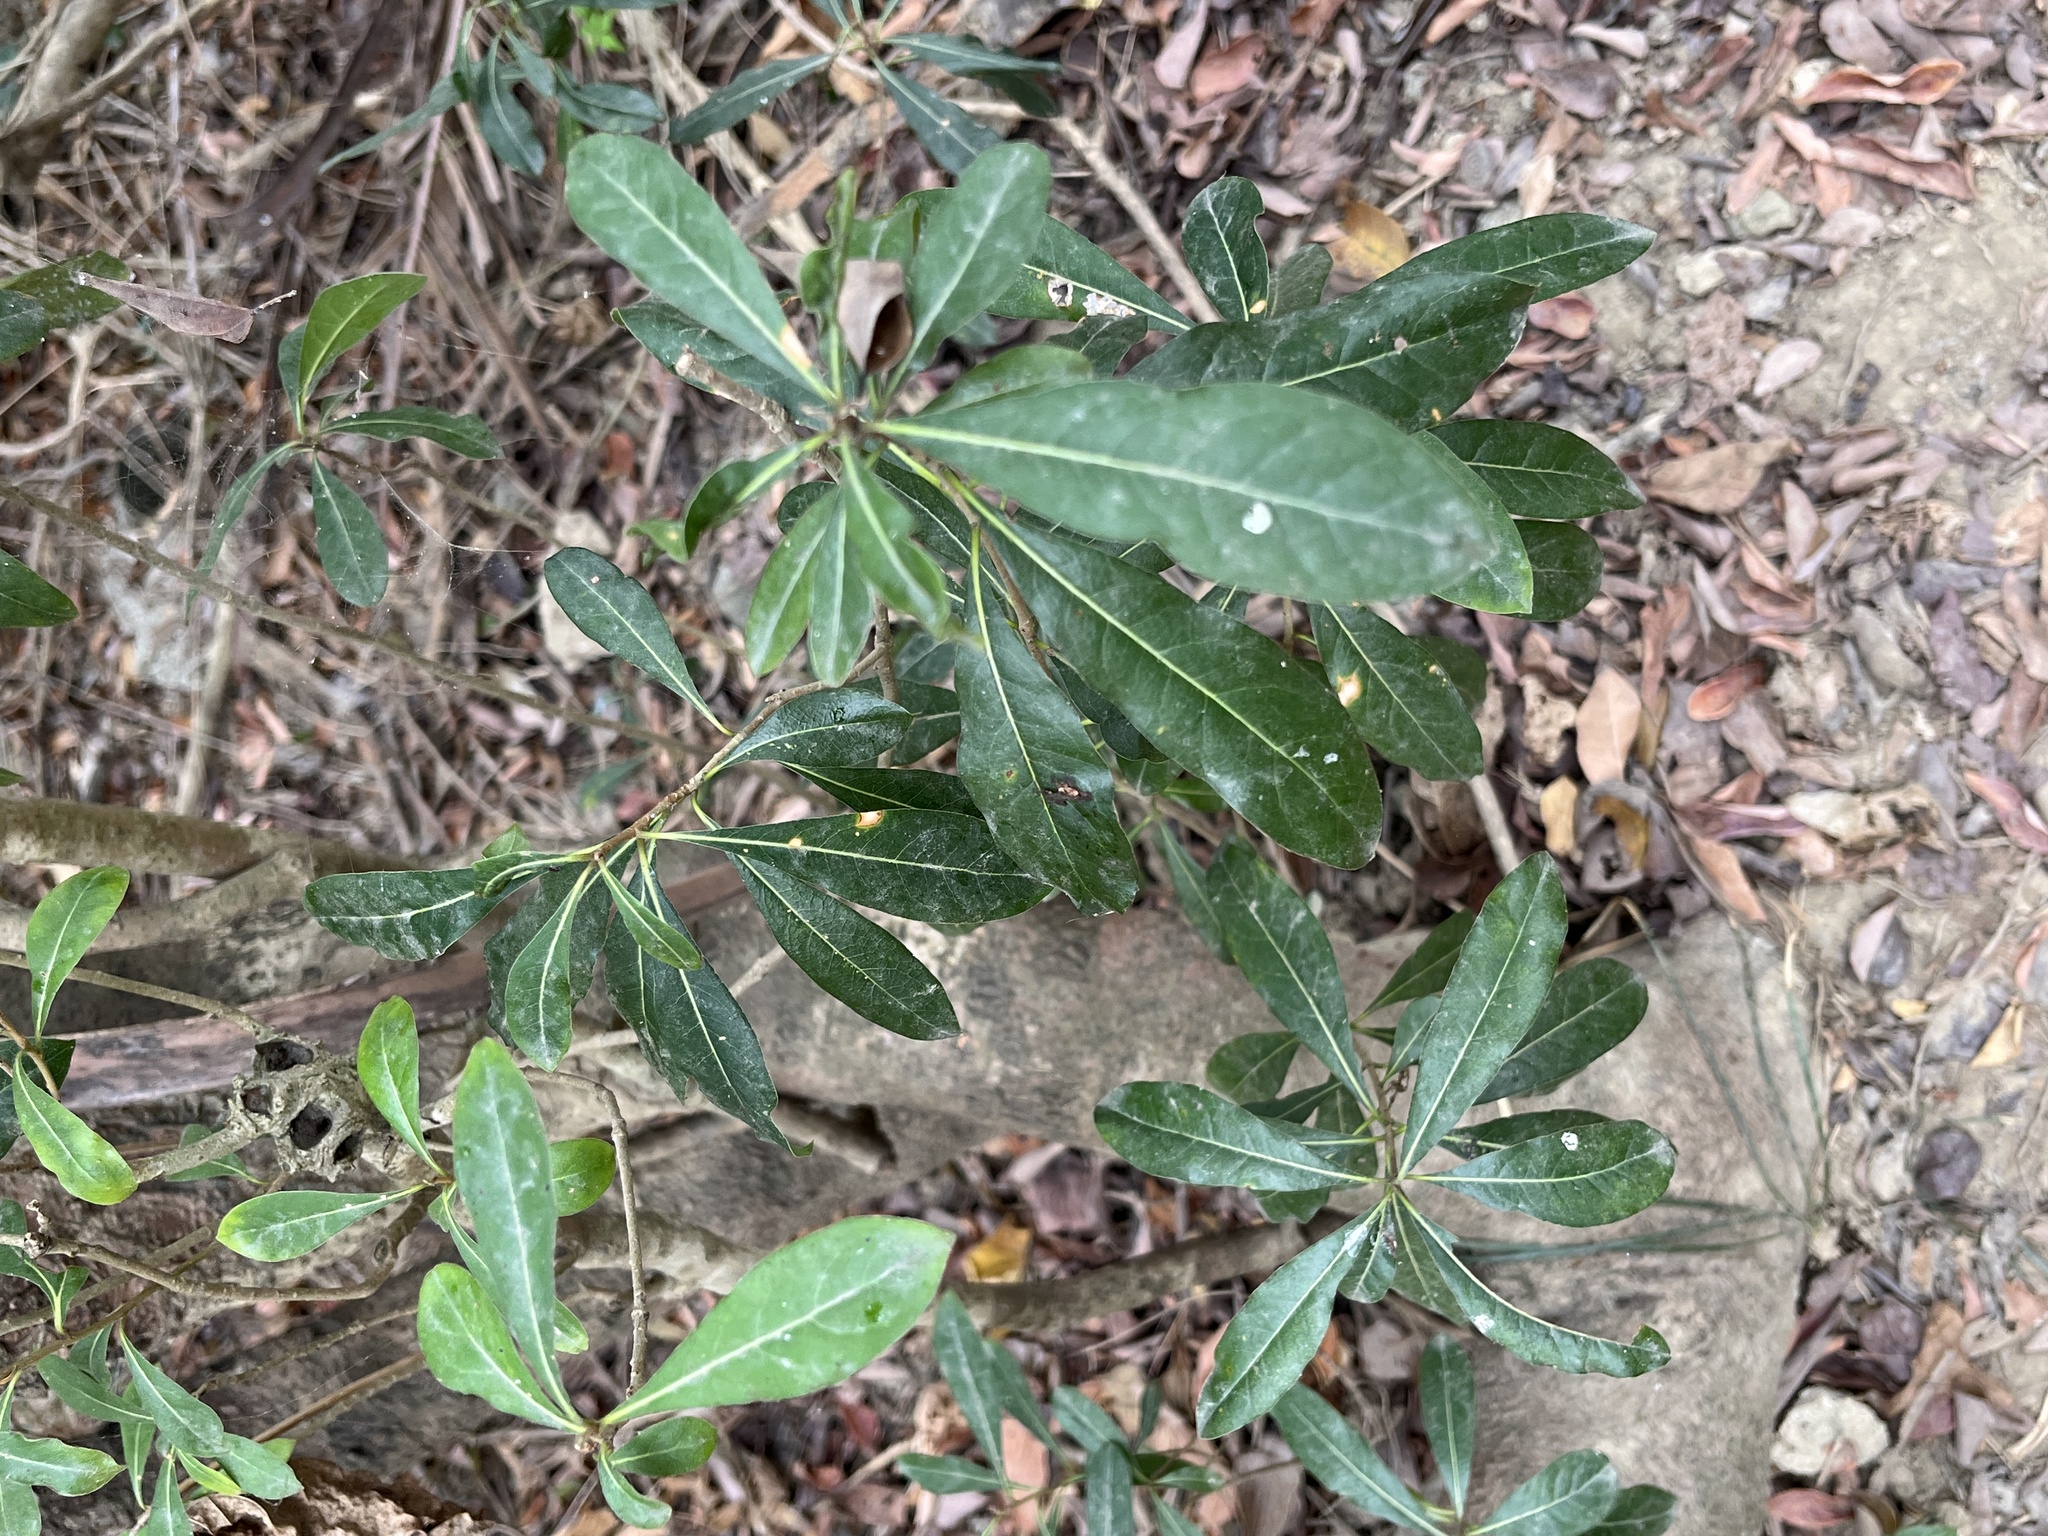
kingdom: Plantae
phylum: Tracheophyta
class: Magnoliopsida
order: Apiales
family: Pittosporaceae
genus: Pittosporum
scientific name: Pittosporum pentandrum
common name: Taiwanese cheesewood
